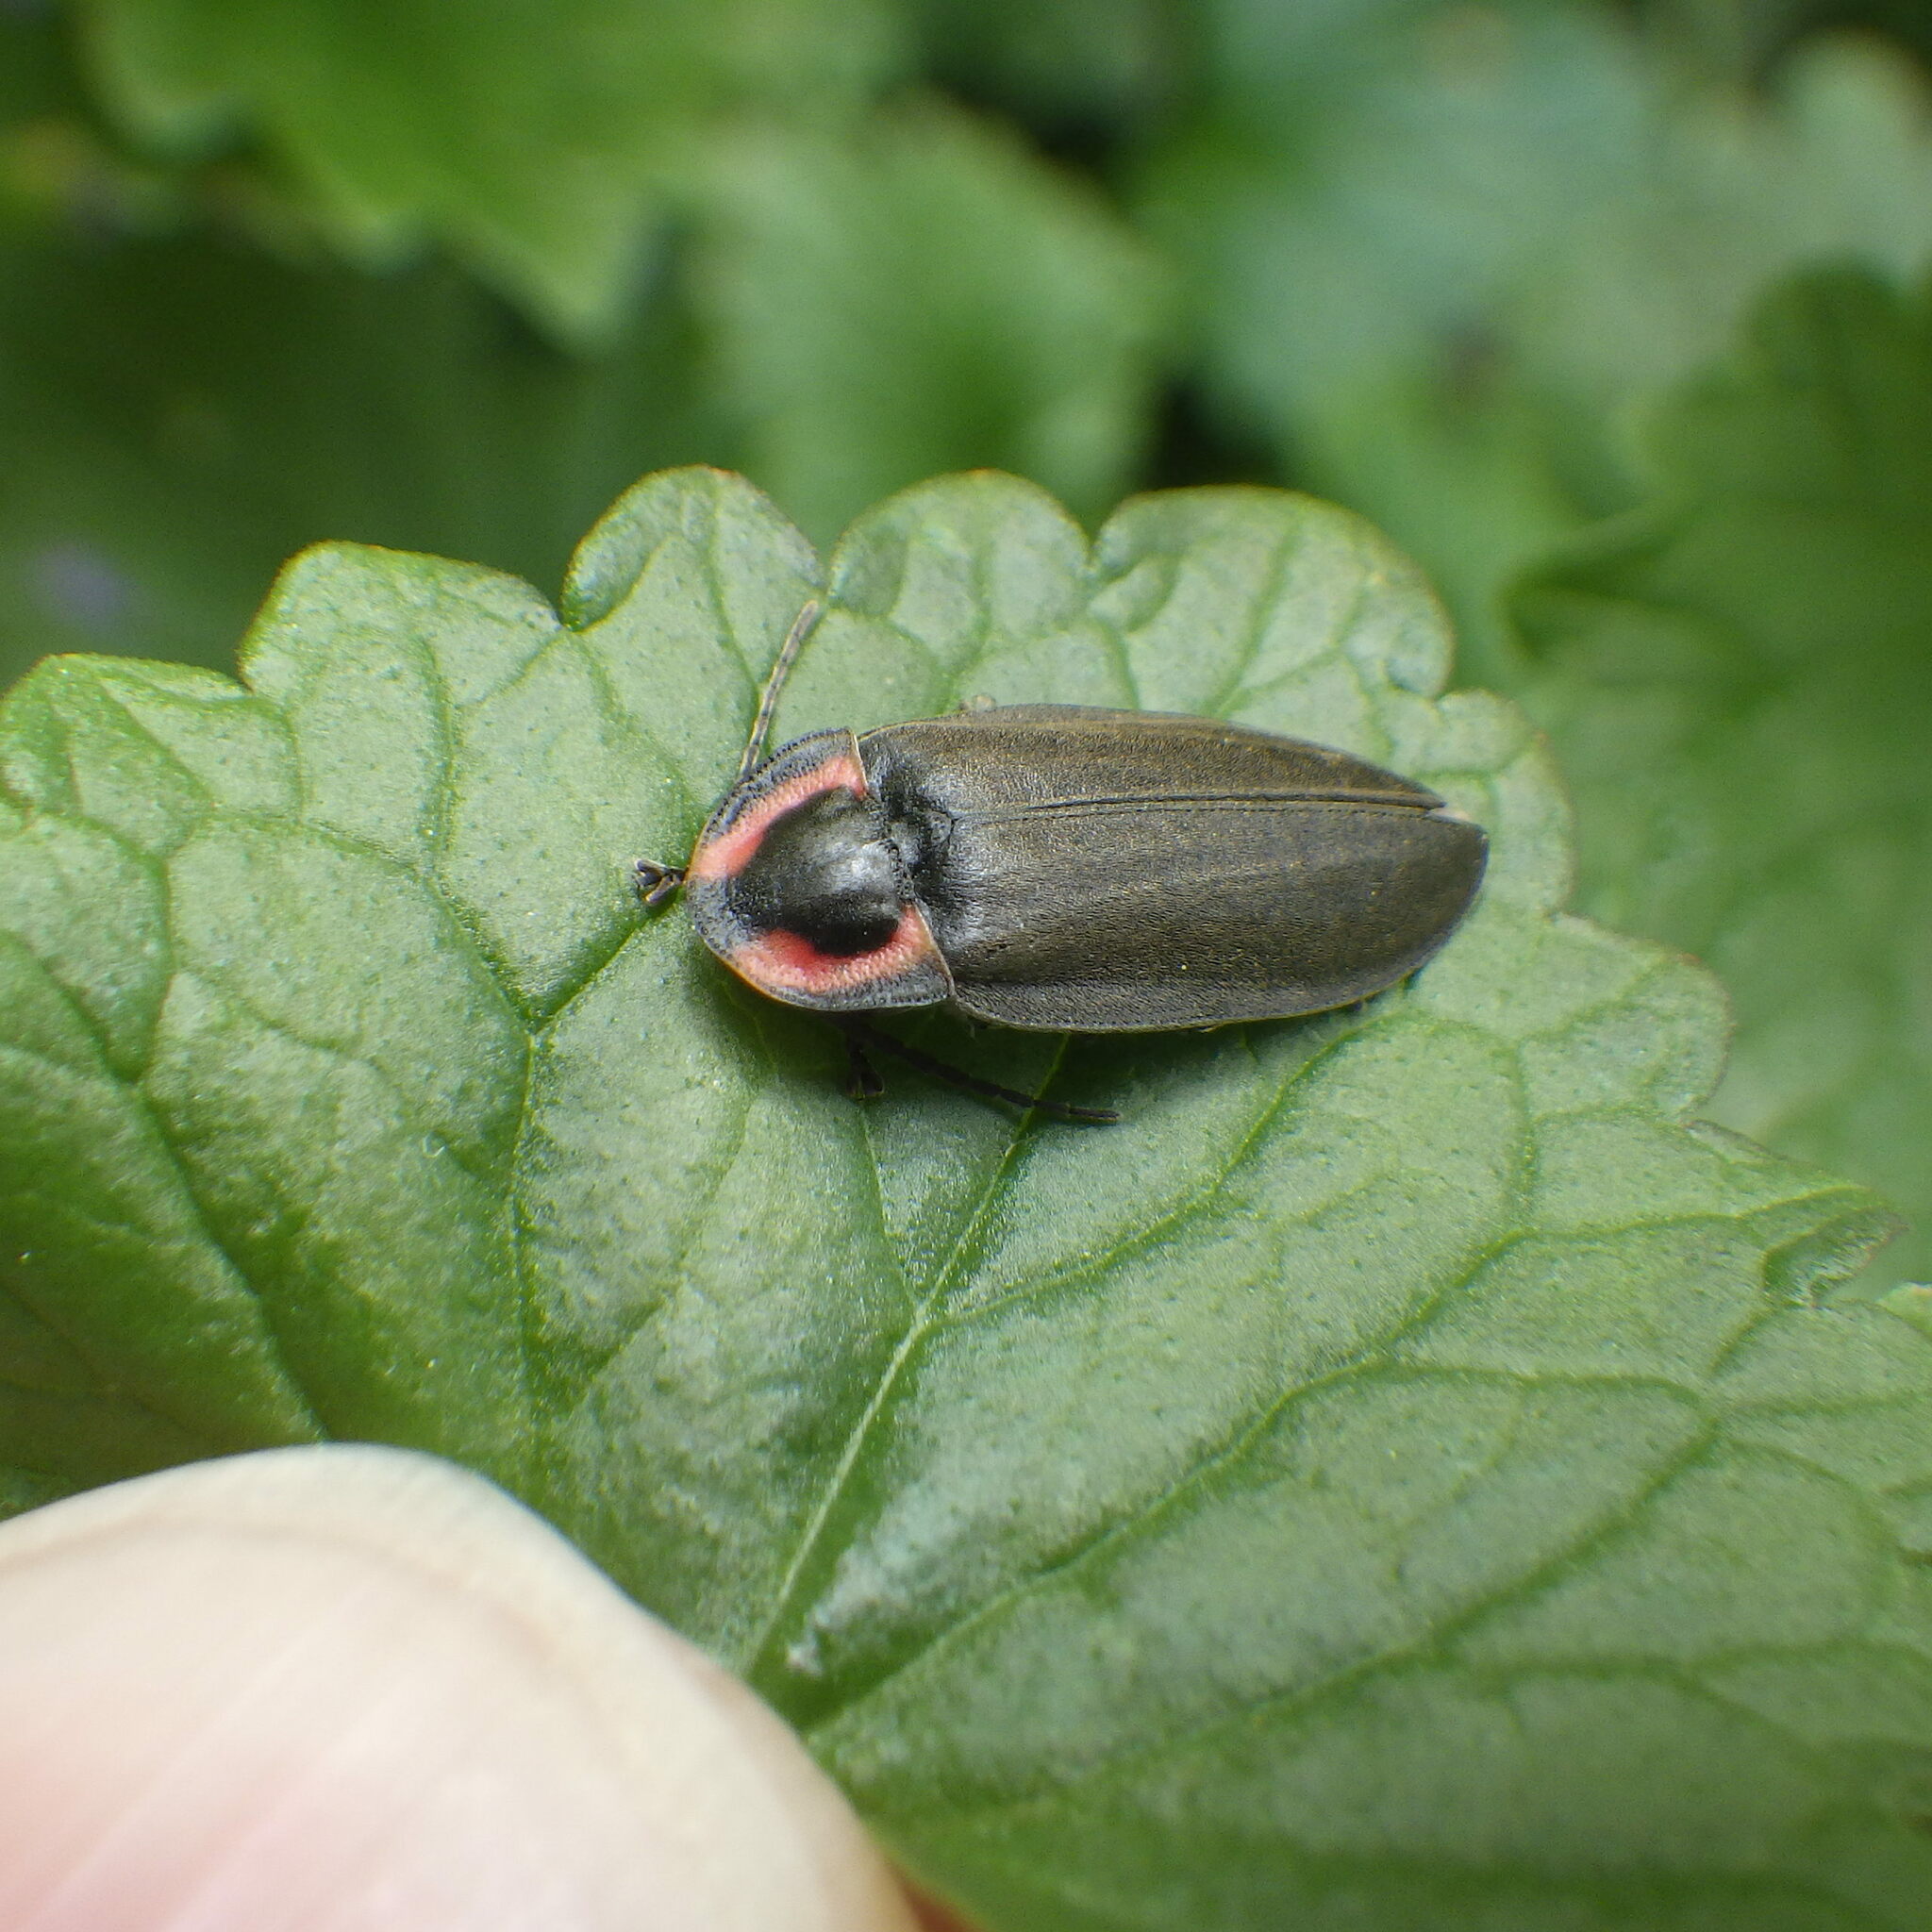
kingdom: Animalia
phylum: Arthropoda
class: Insecta
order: Coleoptera
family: Lampyridae
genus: Photinus
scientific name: Photinus corrusca
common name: Winter firefly
